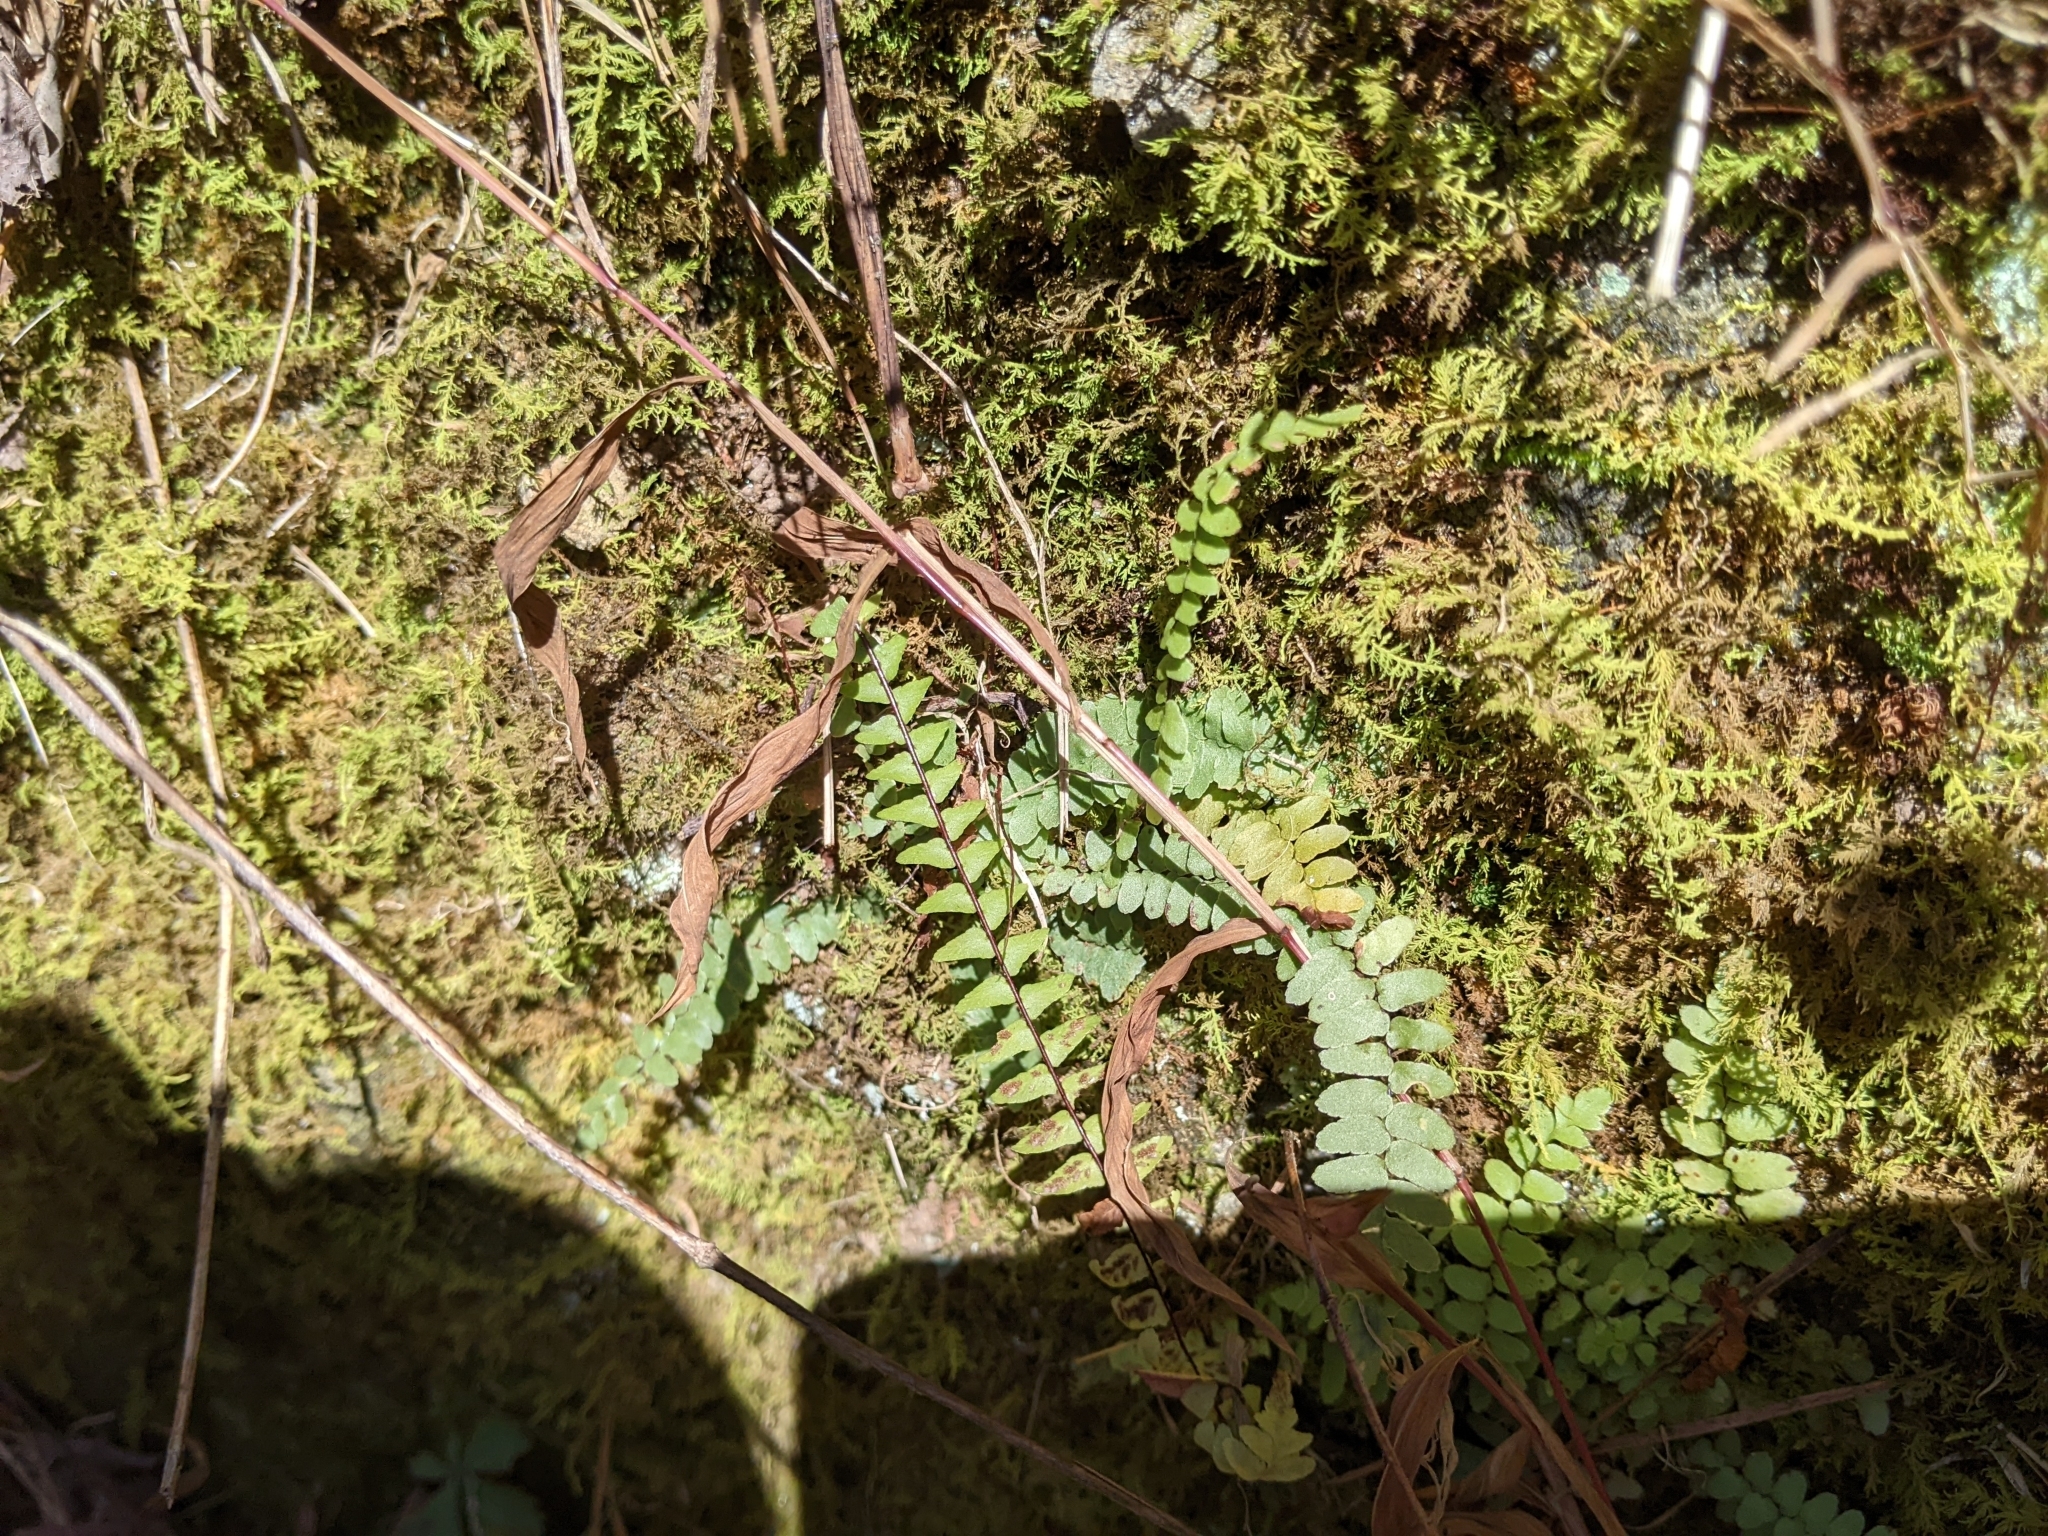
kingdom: Plantae
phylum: Tracheophyta
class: Polypodiopsida
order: Polypodiales
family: Aspleniaceae
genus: Asplenium
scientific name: Asplenium platyneuron
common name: Ebony spleenwort
